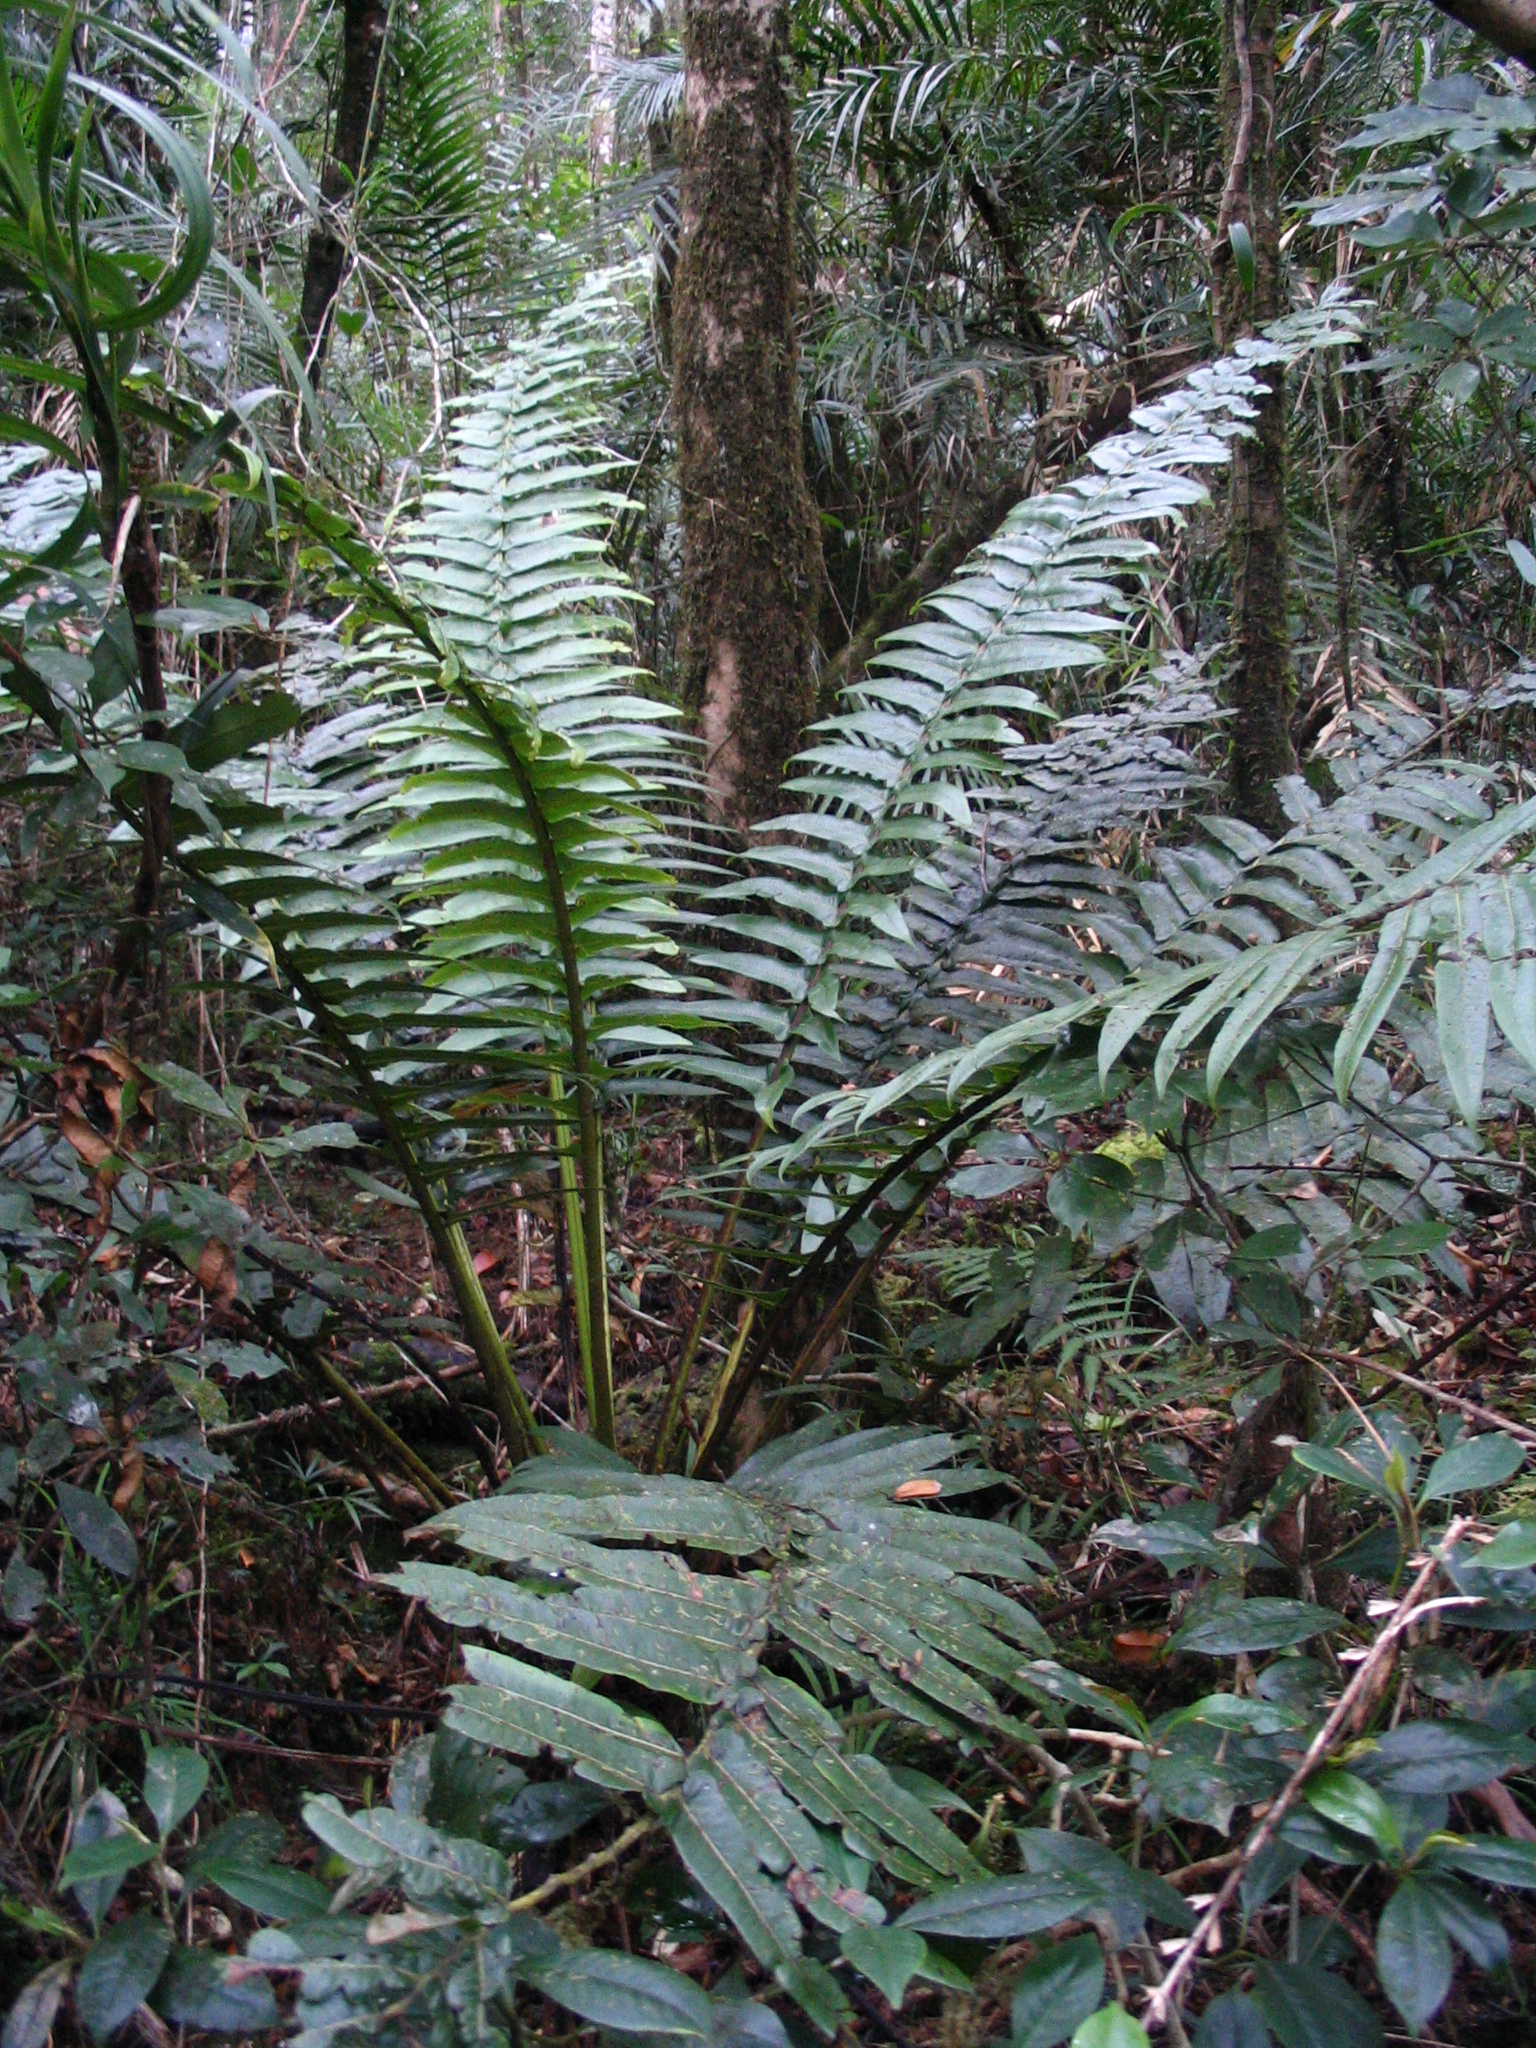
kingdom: Plantae
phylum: Tracheophyta
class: Polypodiopsida
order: Cyatheales
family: Cyatheaceae
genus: Sphaeropteris
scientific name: Sphaeropteris capitata
